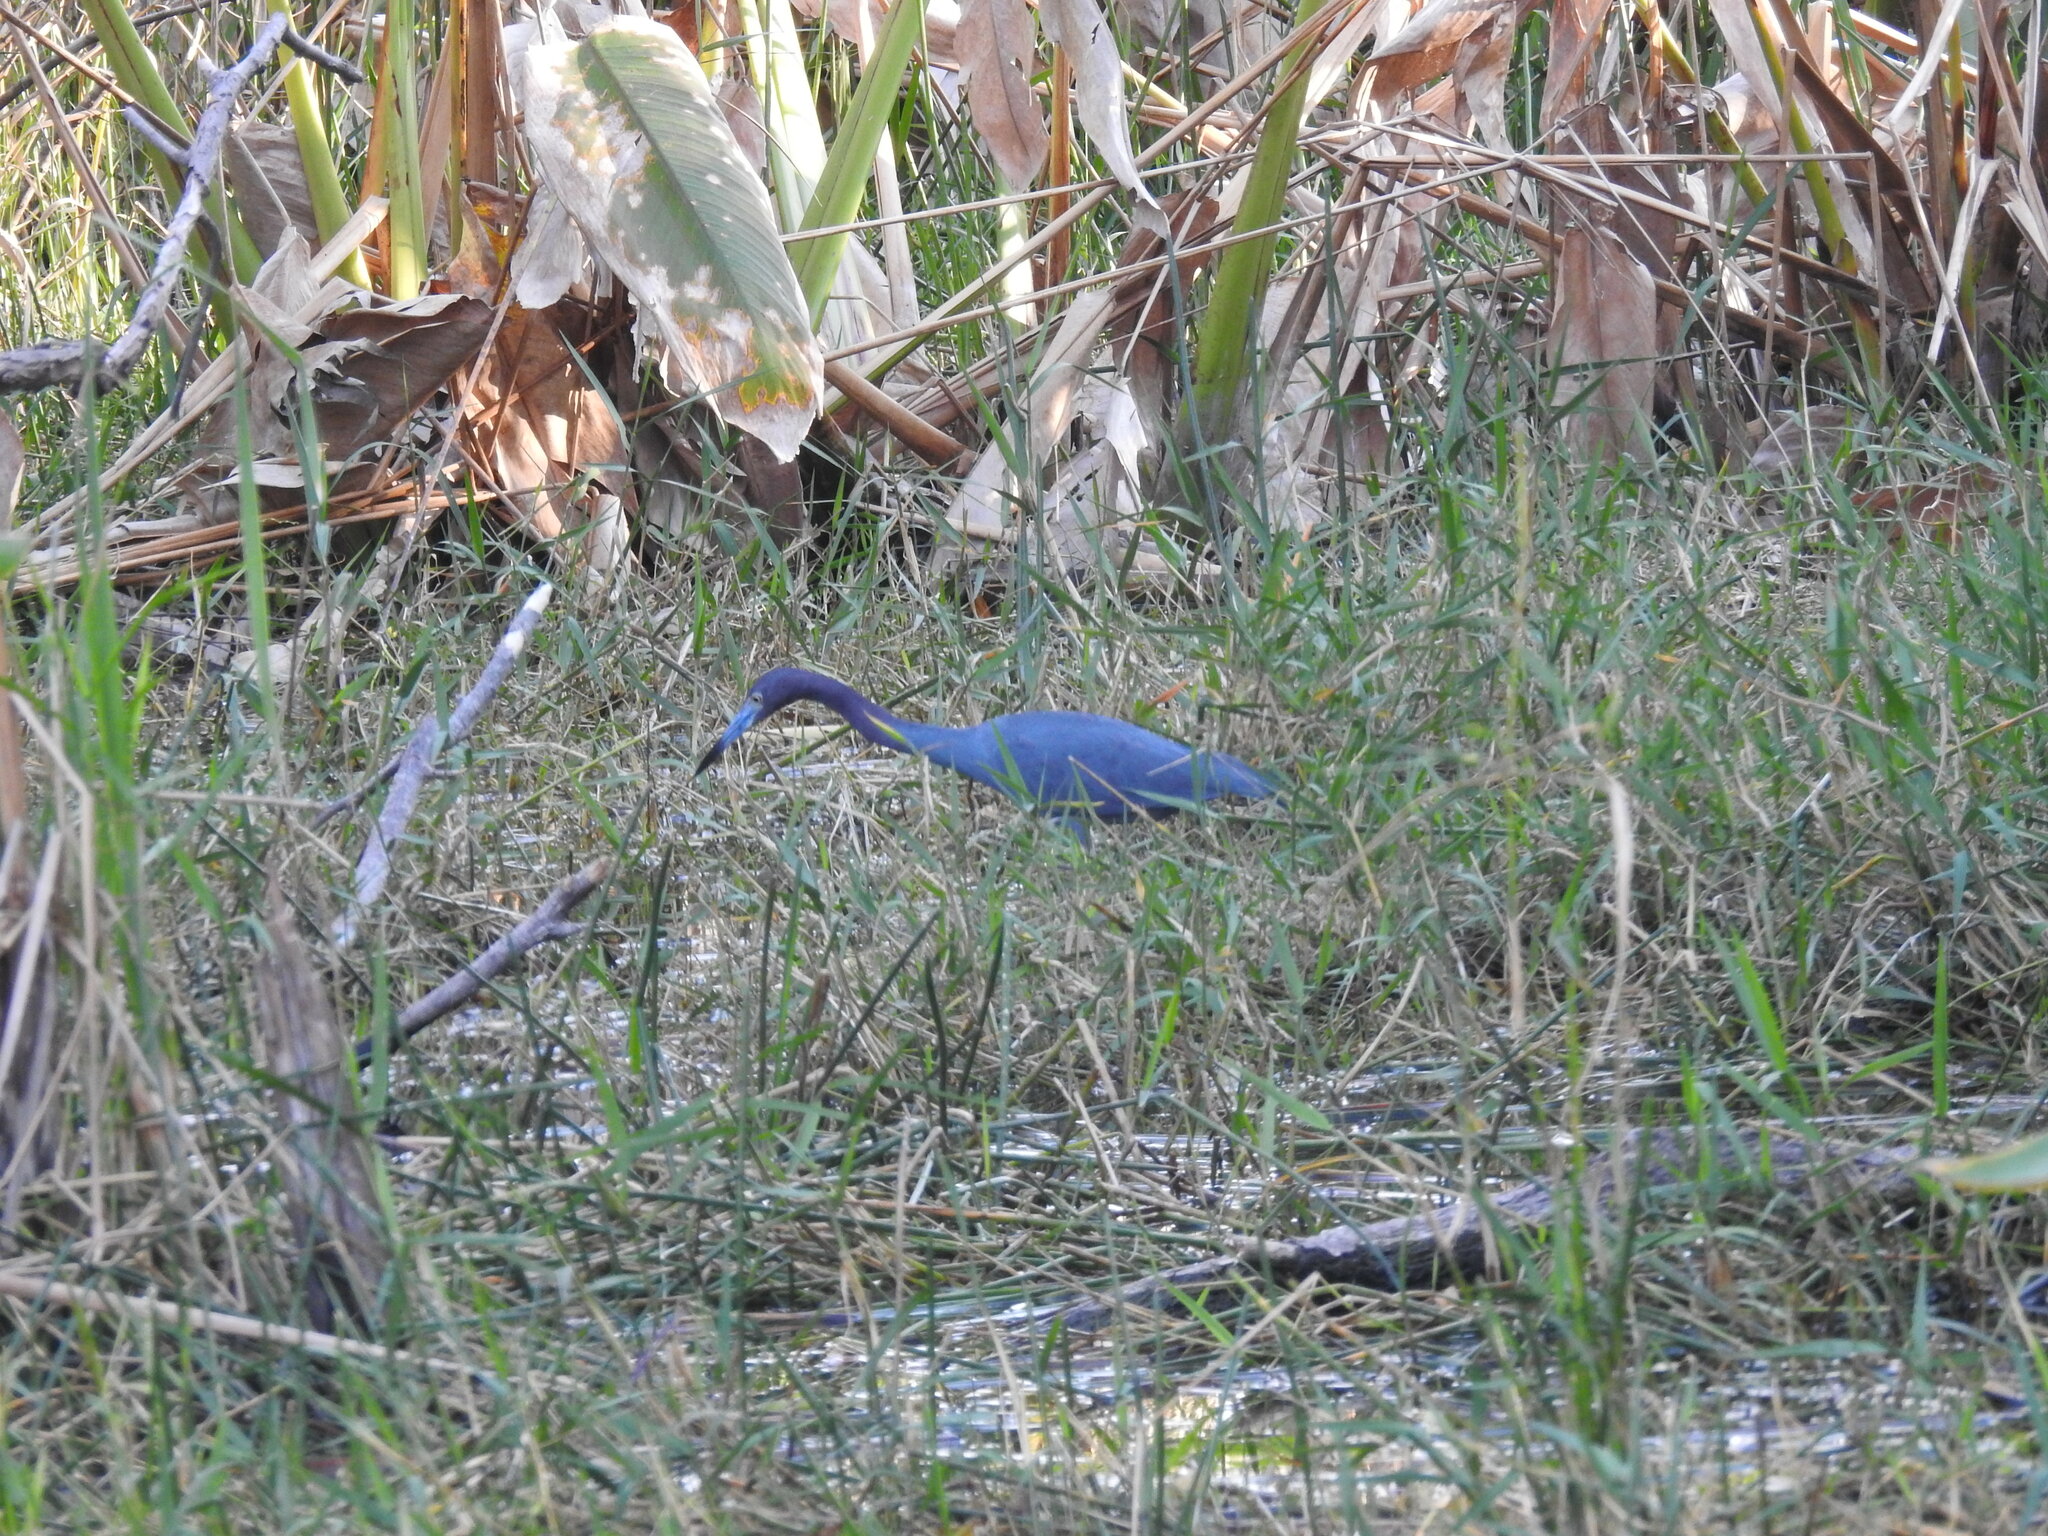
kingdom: Animalia
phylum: Chordata
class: Aves
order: Pelecaniformes
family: Ardeidae
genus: Egretta
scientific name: Egretta caerulea
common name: Little blue heron
